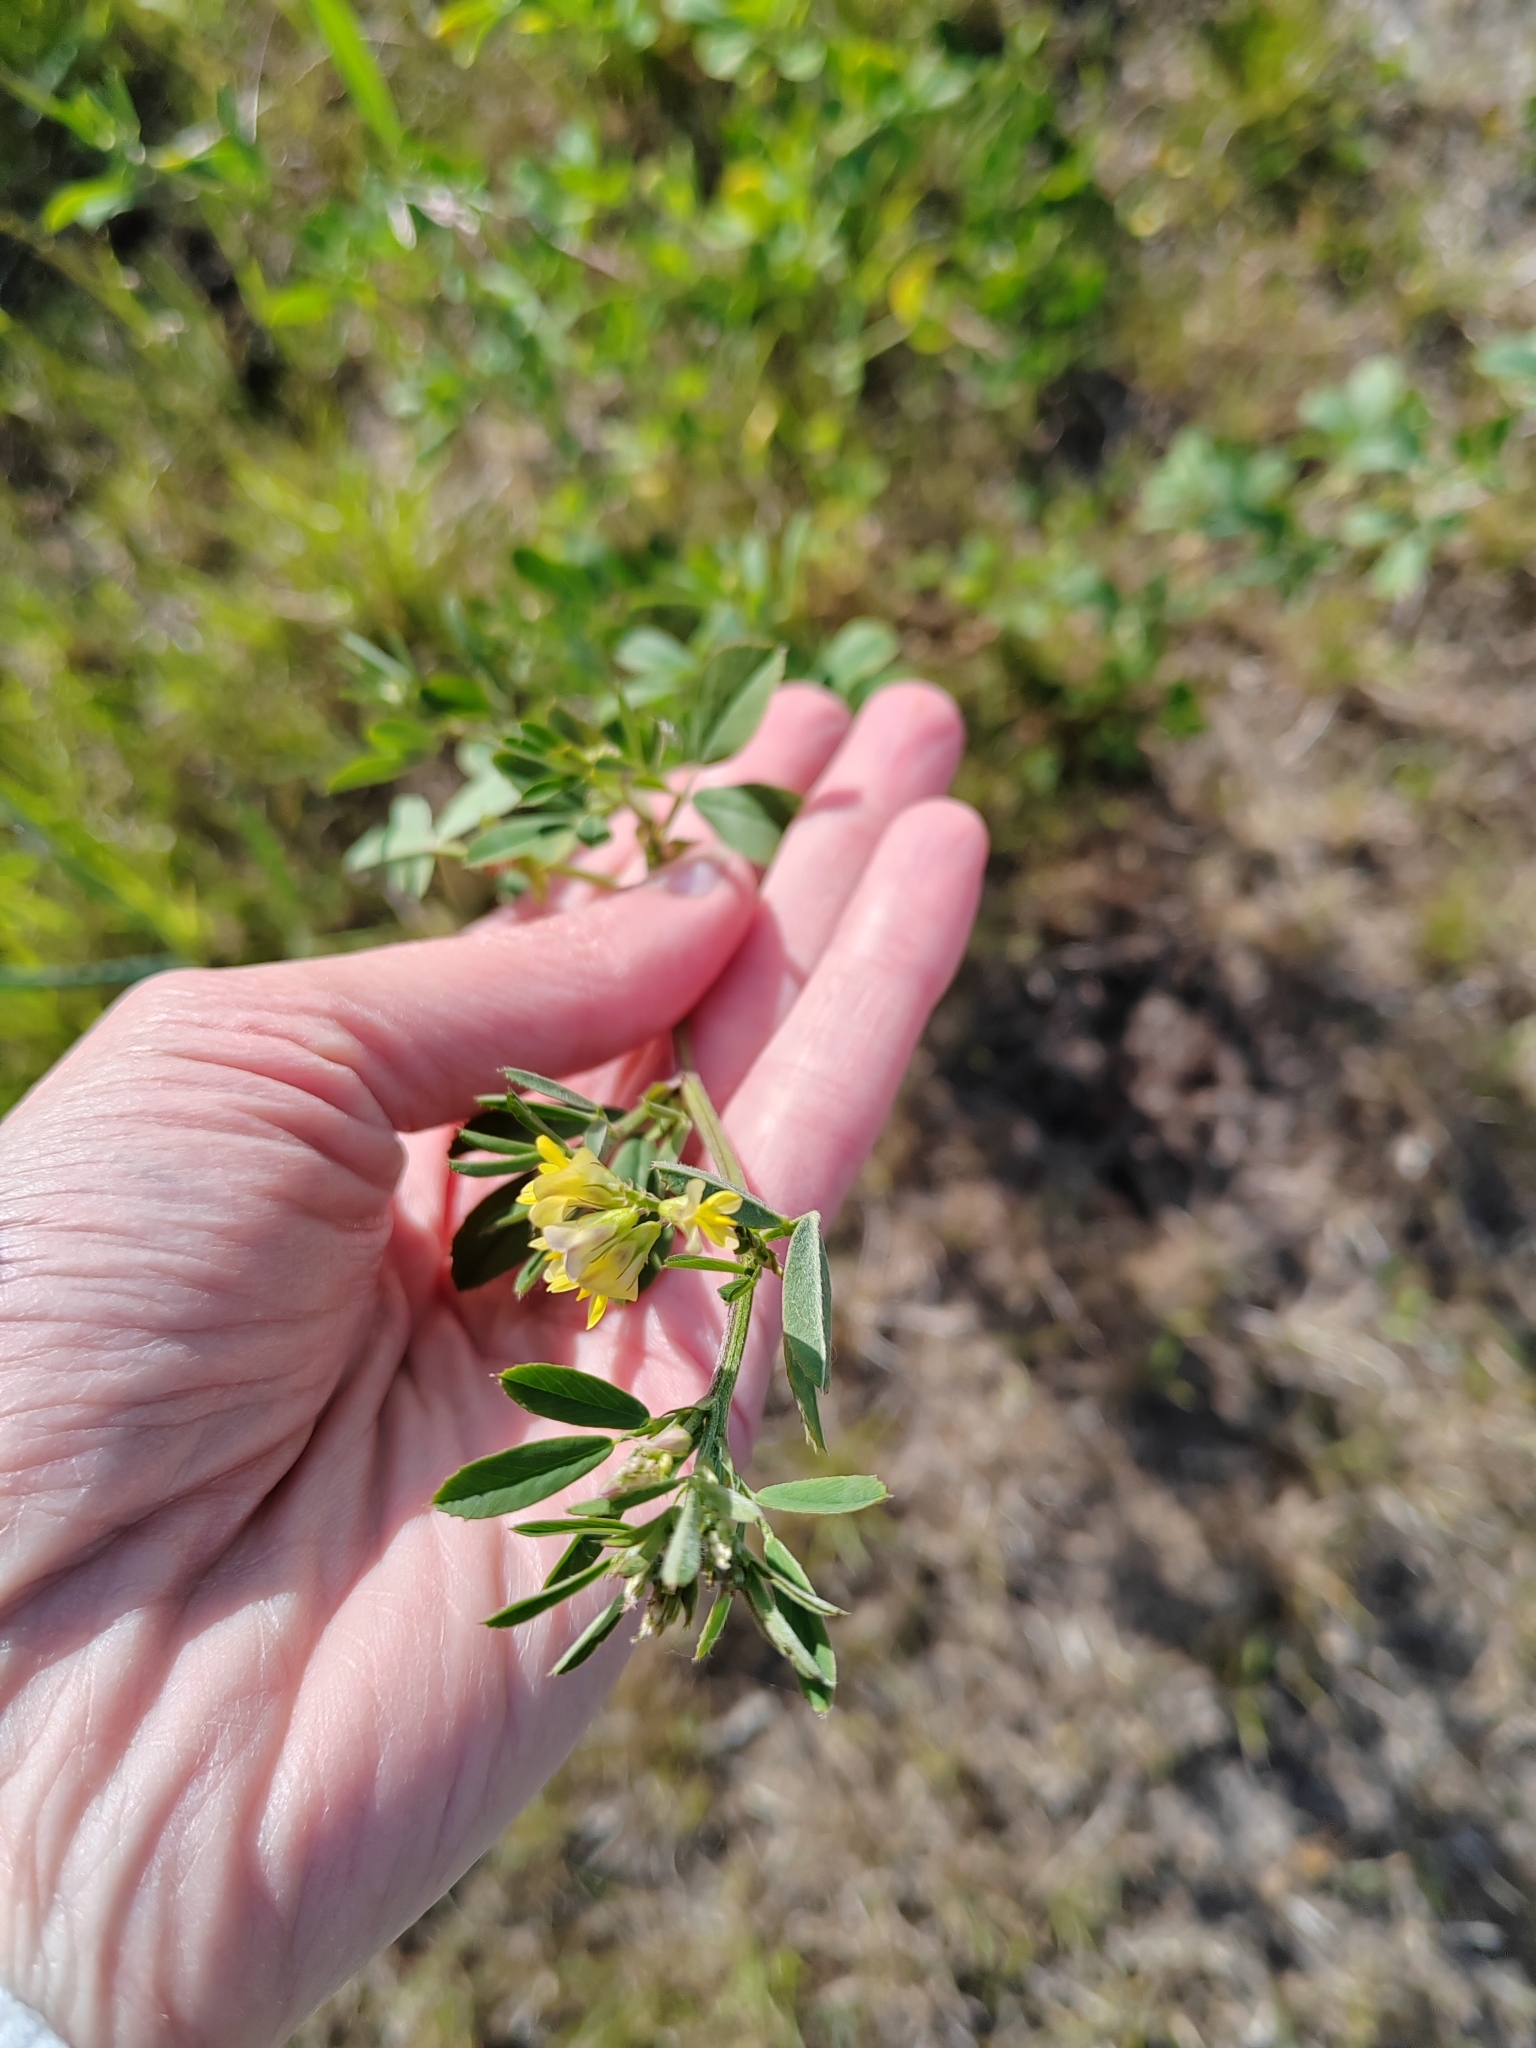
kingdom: Plantae
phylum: Tracheophyta
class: Magnoliopsida
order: Fabales
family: Fabaceae
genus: Medicago
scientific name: Medicago falcata
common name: Sickle medick
